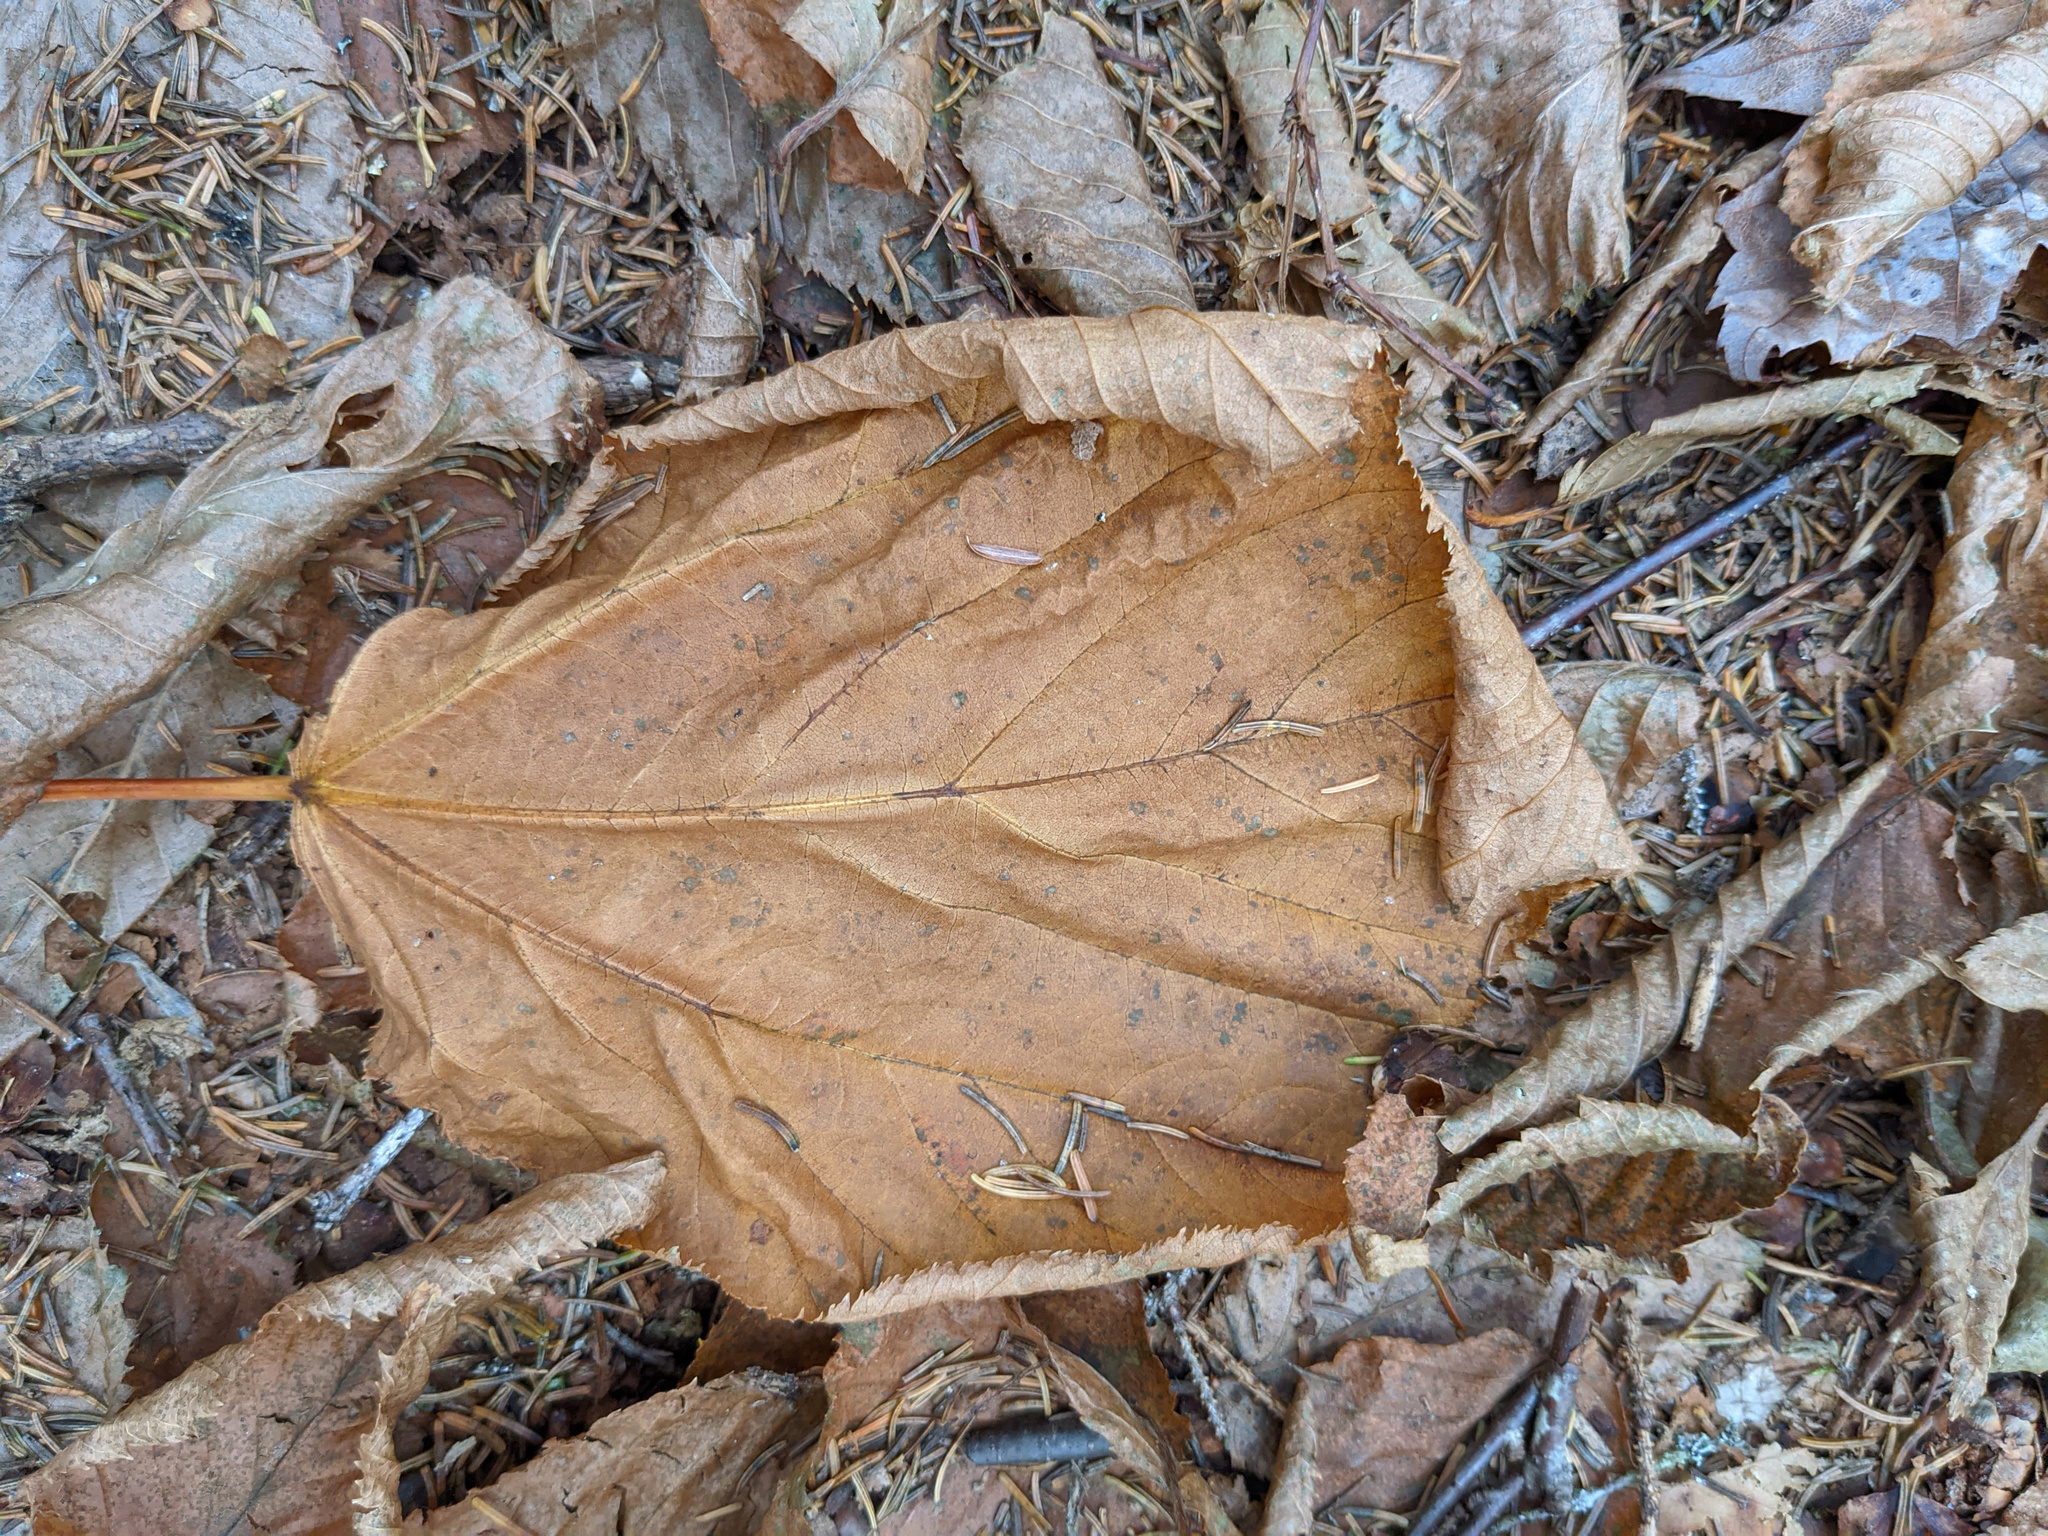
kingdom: Plantae
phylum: Tracheophyta
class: Magnoliopsida
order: Sapindales
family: Sapindaceae
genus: Acer
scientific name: Acer pensylvanicum
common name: Moosewood
